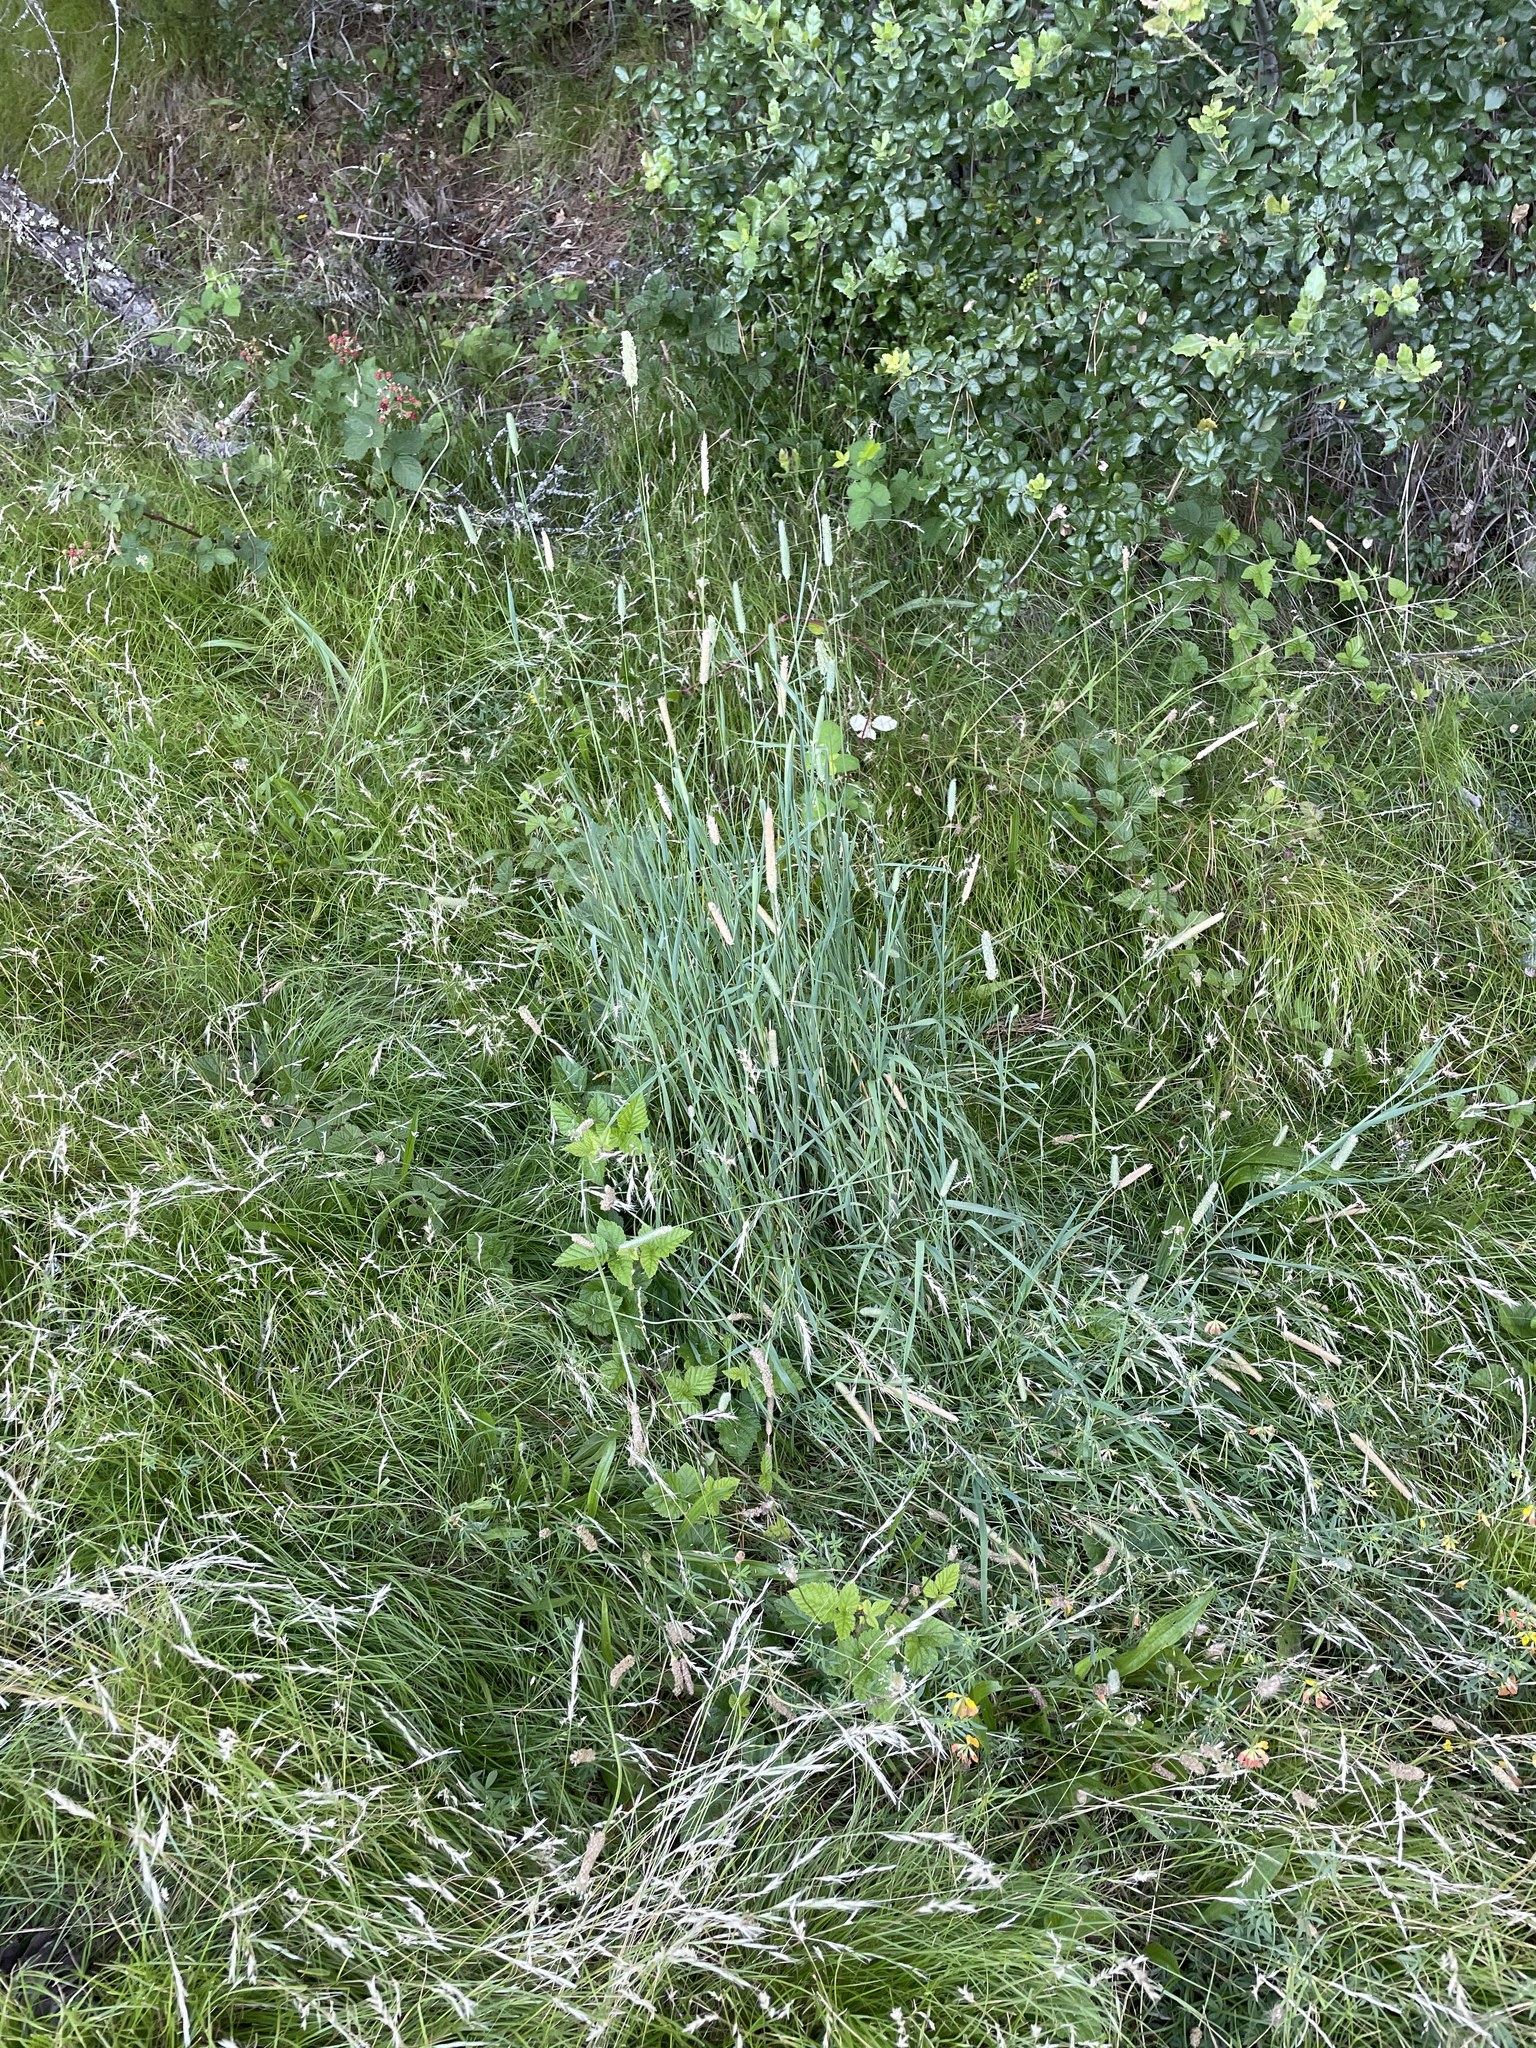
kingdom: Plantae
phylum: Tracheophyta
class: Liliopsida
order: Poales
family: Poaceae
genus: Phleum
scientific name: Phleum pratense
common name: Timothy grass
